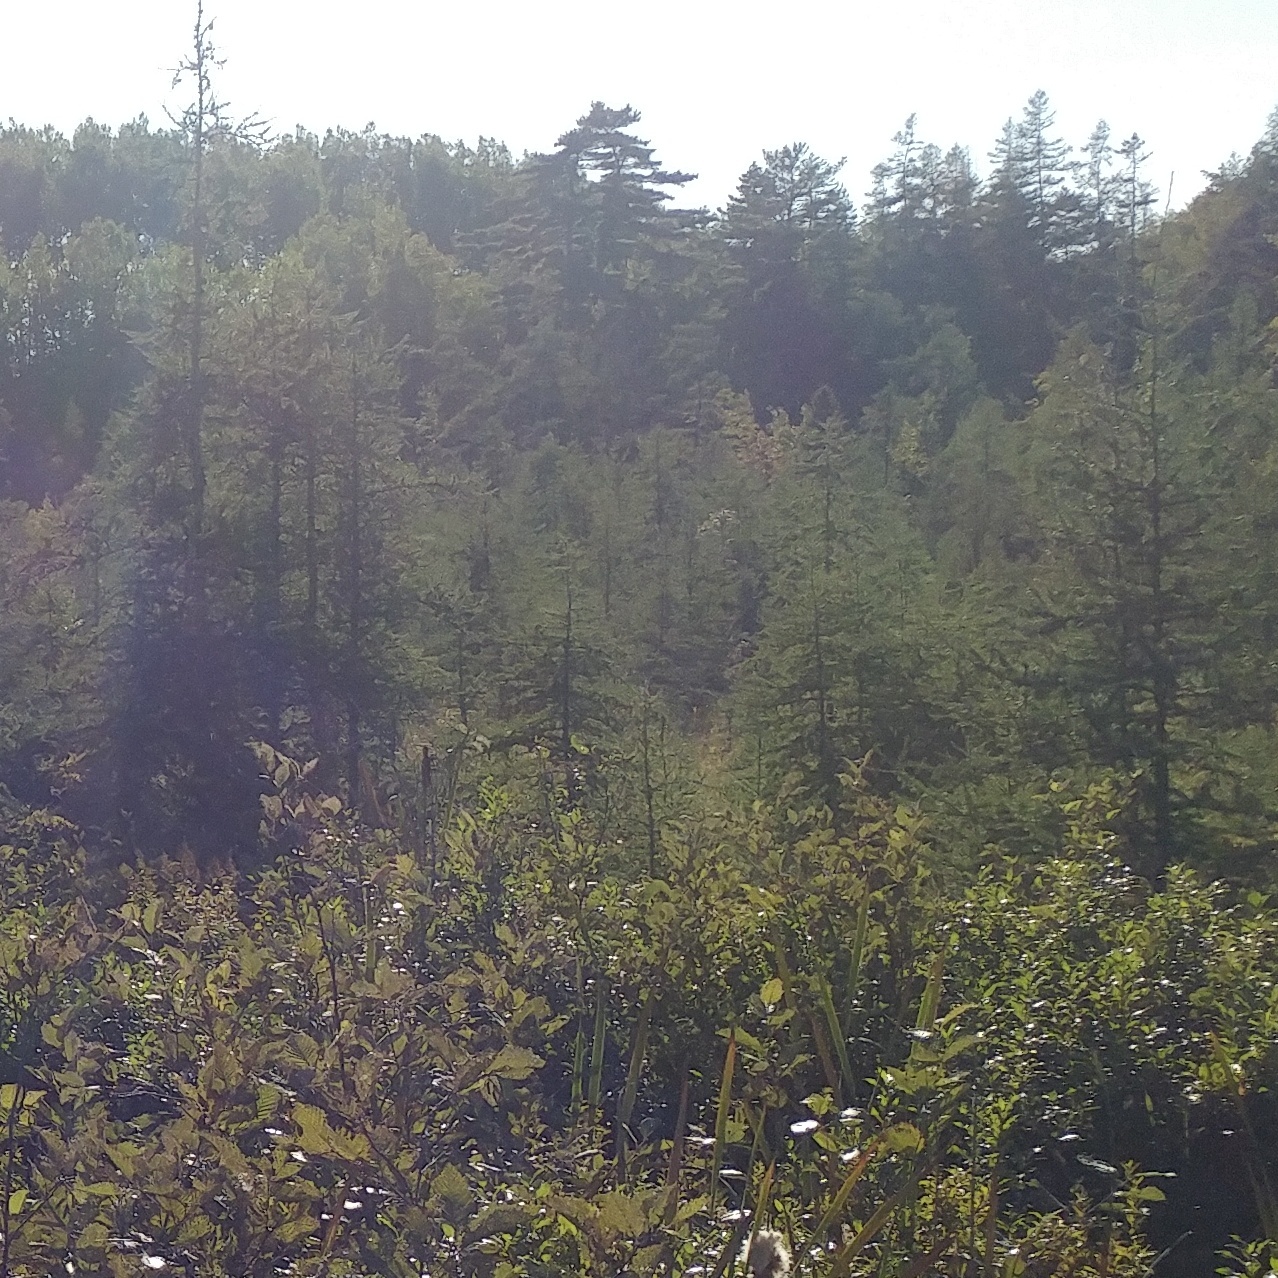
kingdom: Plantae
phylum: Tracheophyta
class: Pinopsida
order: Pinales
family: Pinaceae
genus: Larix
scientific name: Larix laricina
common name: American larch
